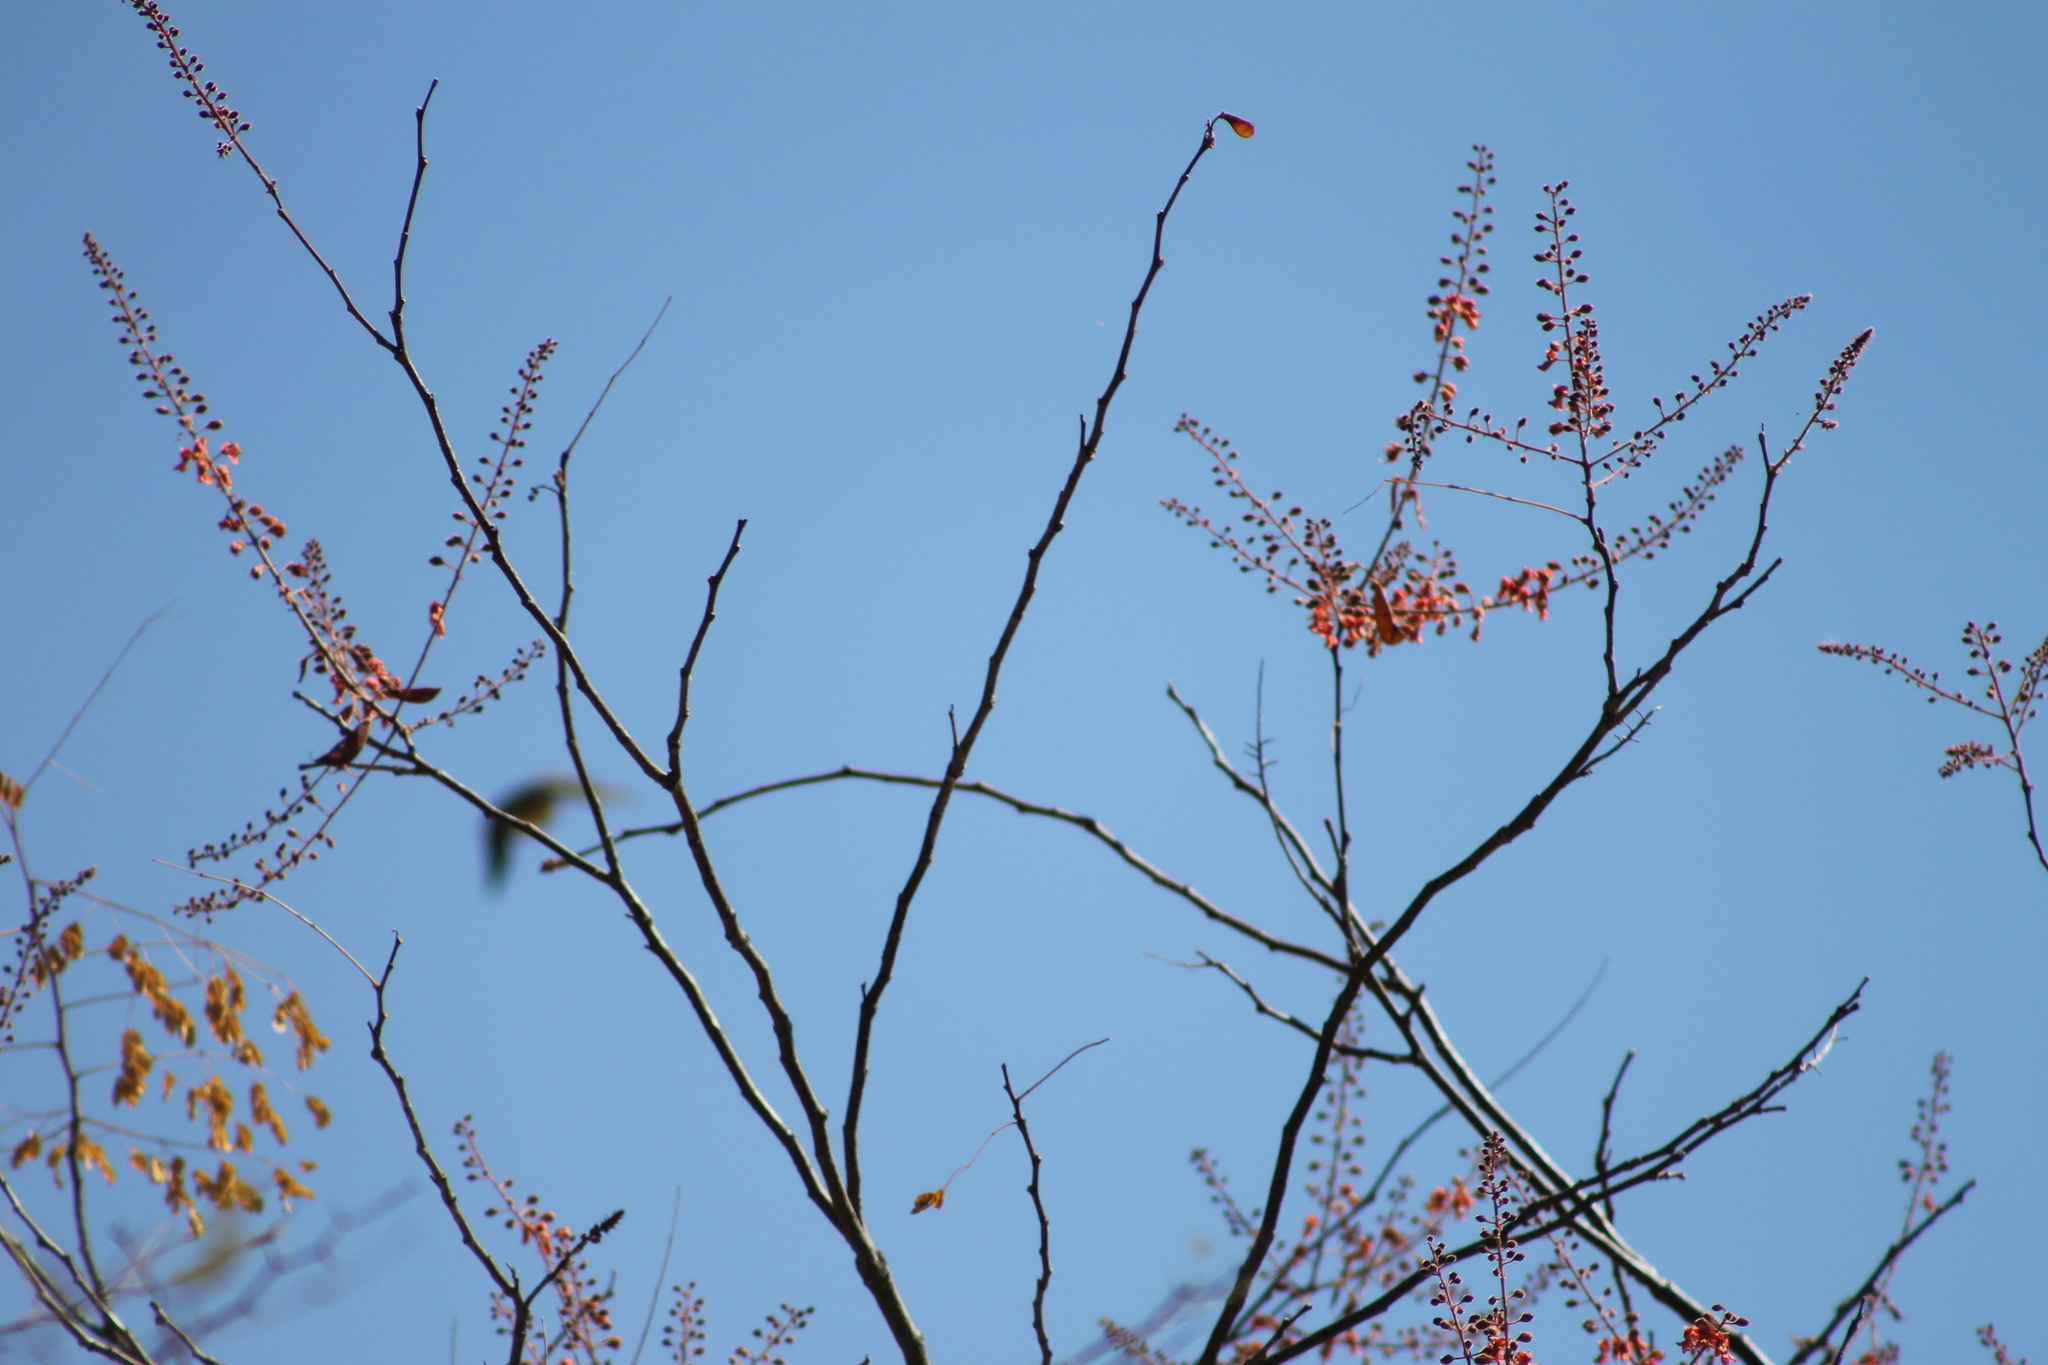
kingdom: Plantae
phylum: Tracheophyta
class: Magnoliopsida
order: Fabales
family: Fabaceae
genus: Erythrostemon
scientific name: Erythrostemon exostemma
